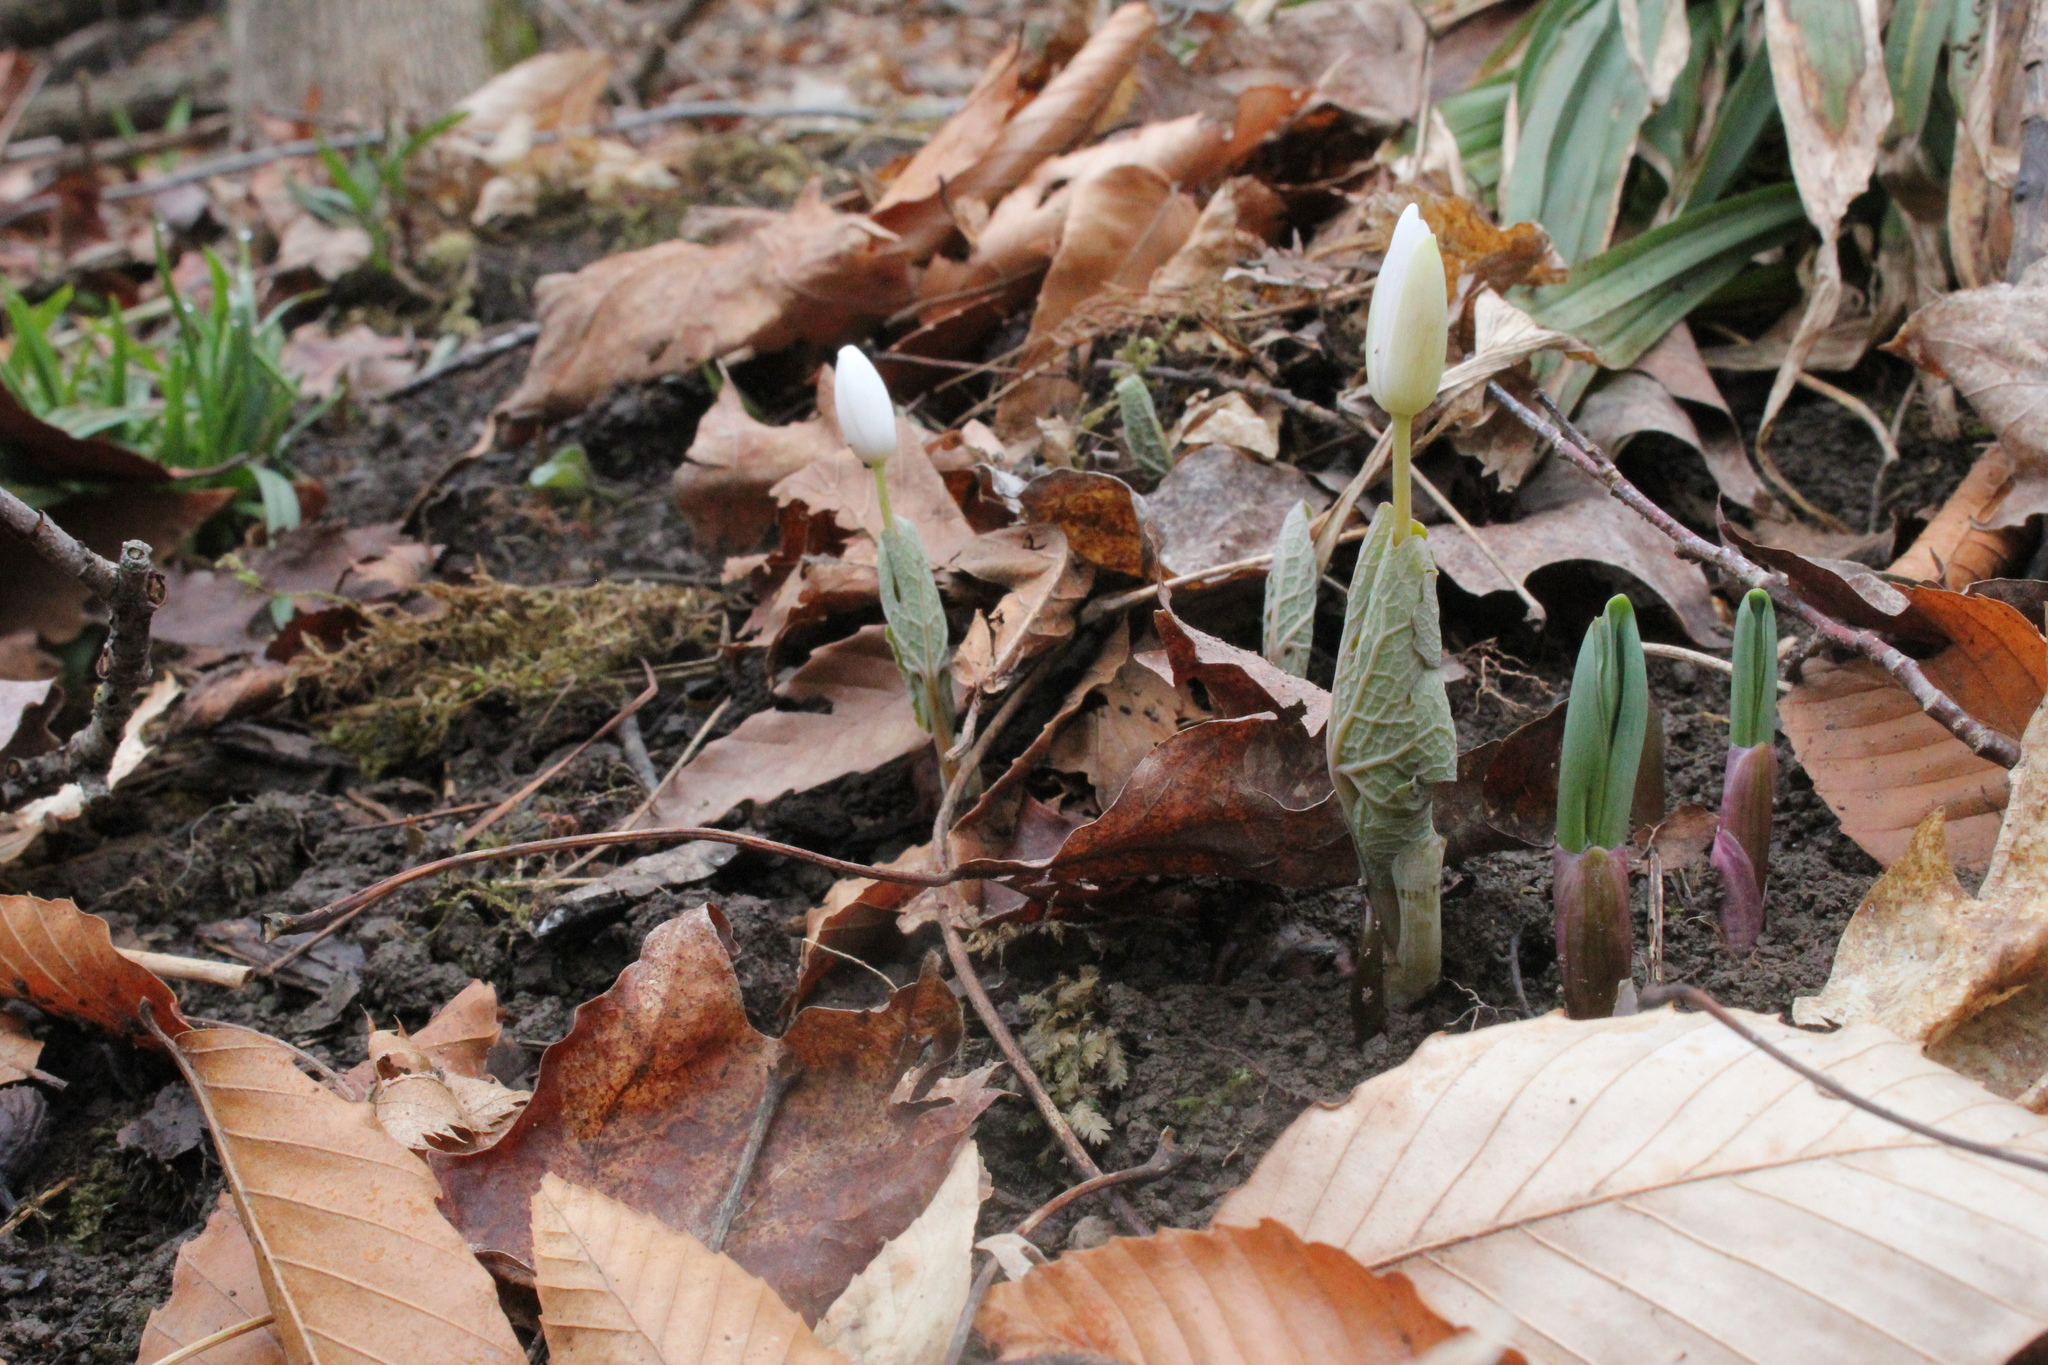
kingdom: Plantae
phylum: Tracheophyta
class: Magnoliopsida
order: Ranunculales
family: Papaveraceae
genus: Sanguinaria
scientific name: Sanguinaria canadensis
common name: Bloodroot
